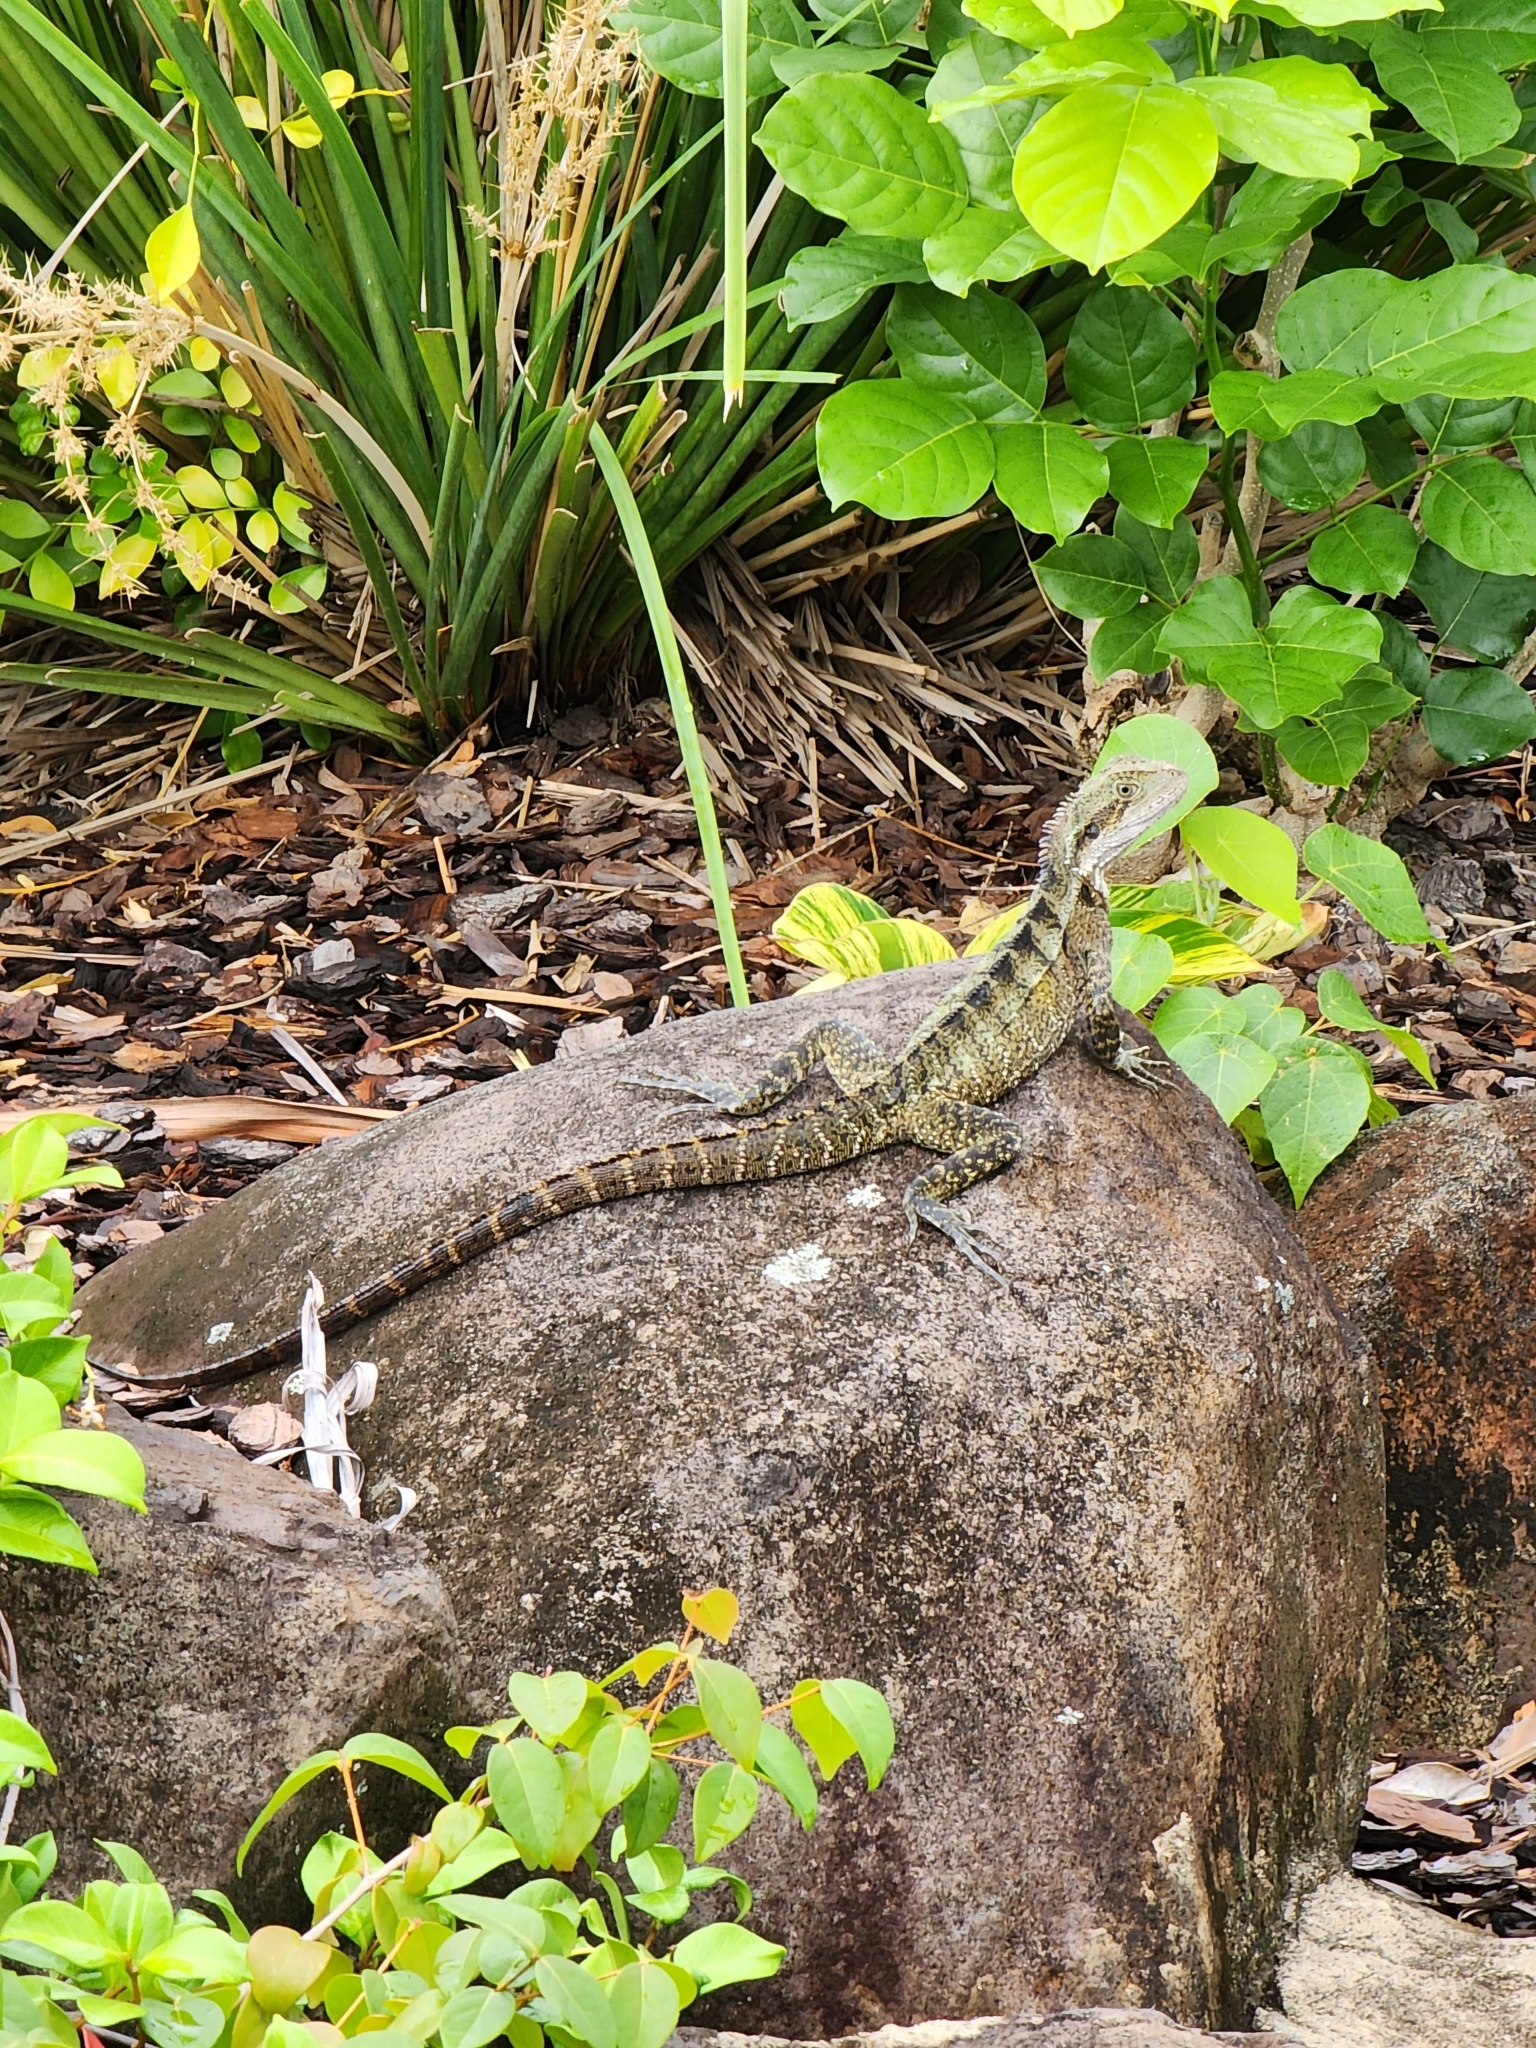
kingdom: Animalia
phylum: Chordata
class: Squamata
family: Agamidae
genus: Intellagama
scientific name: Intellagama lesueurii
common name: Eastern water dragon
